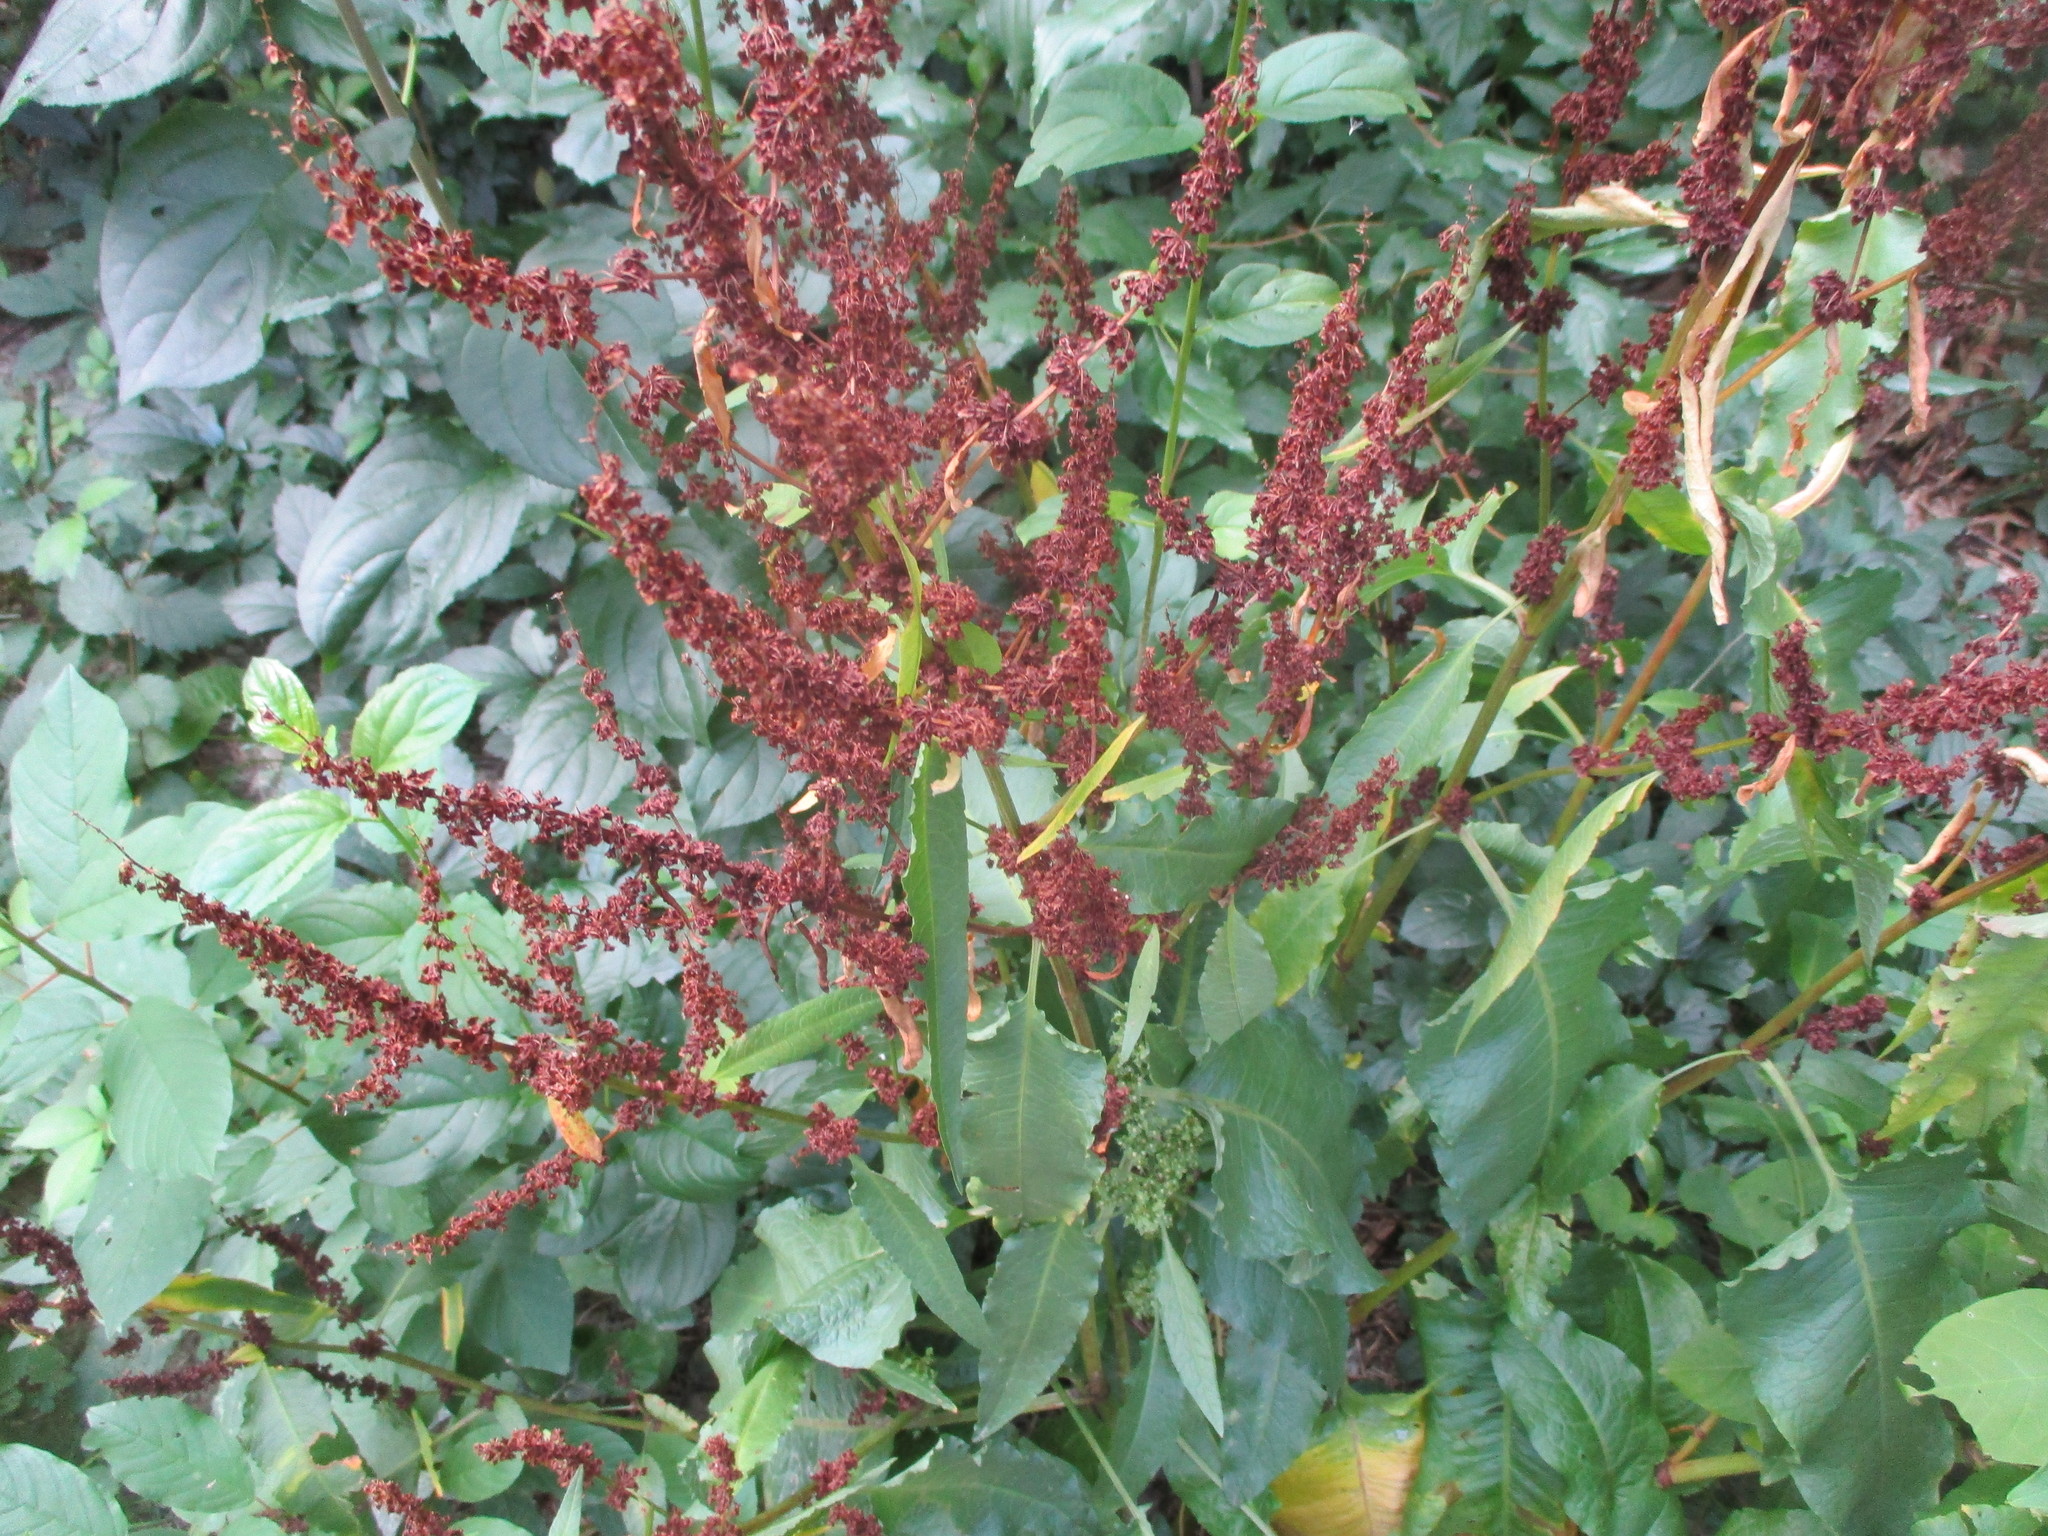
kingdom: Plantae
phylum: Tracheophyta
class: Magnoliopsida
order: Caryophyllales
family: Polygonaceae
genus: Rumex
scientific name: Rumex obtusifolius
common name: Bitter dock
